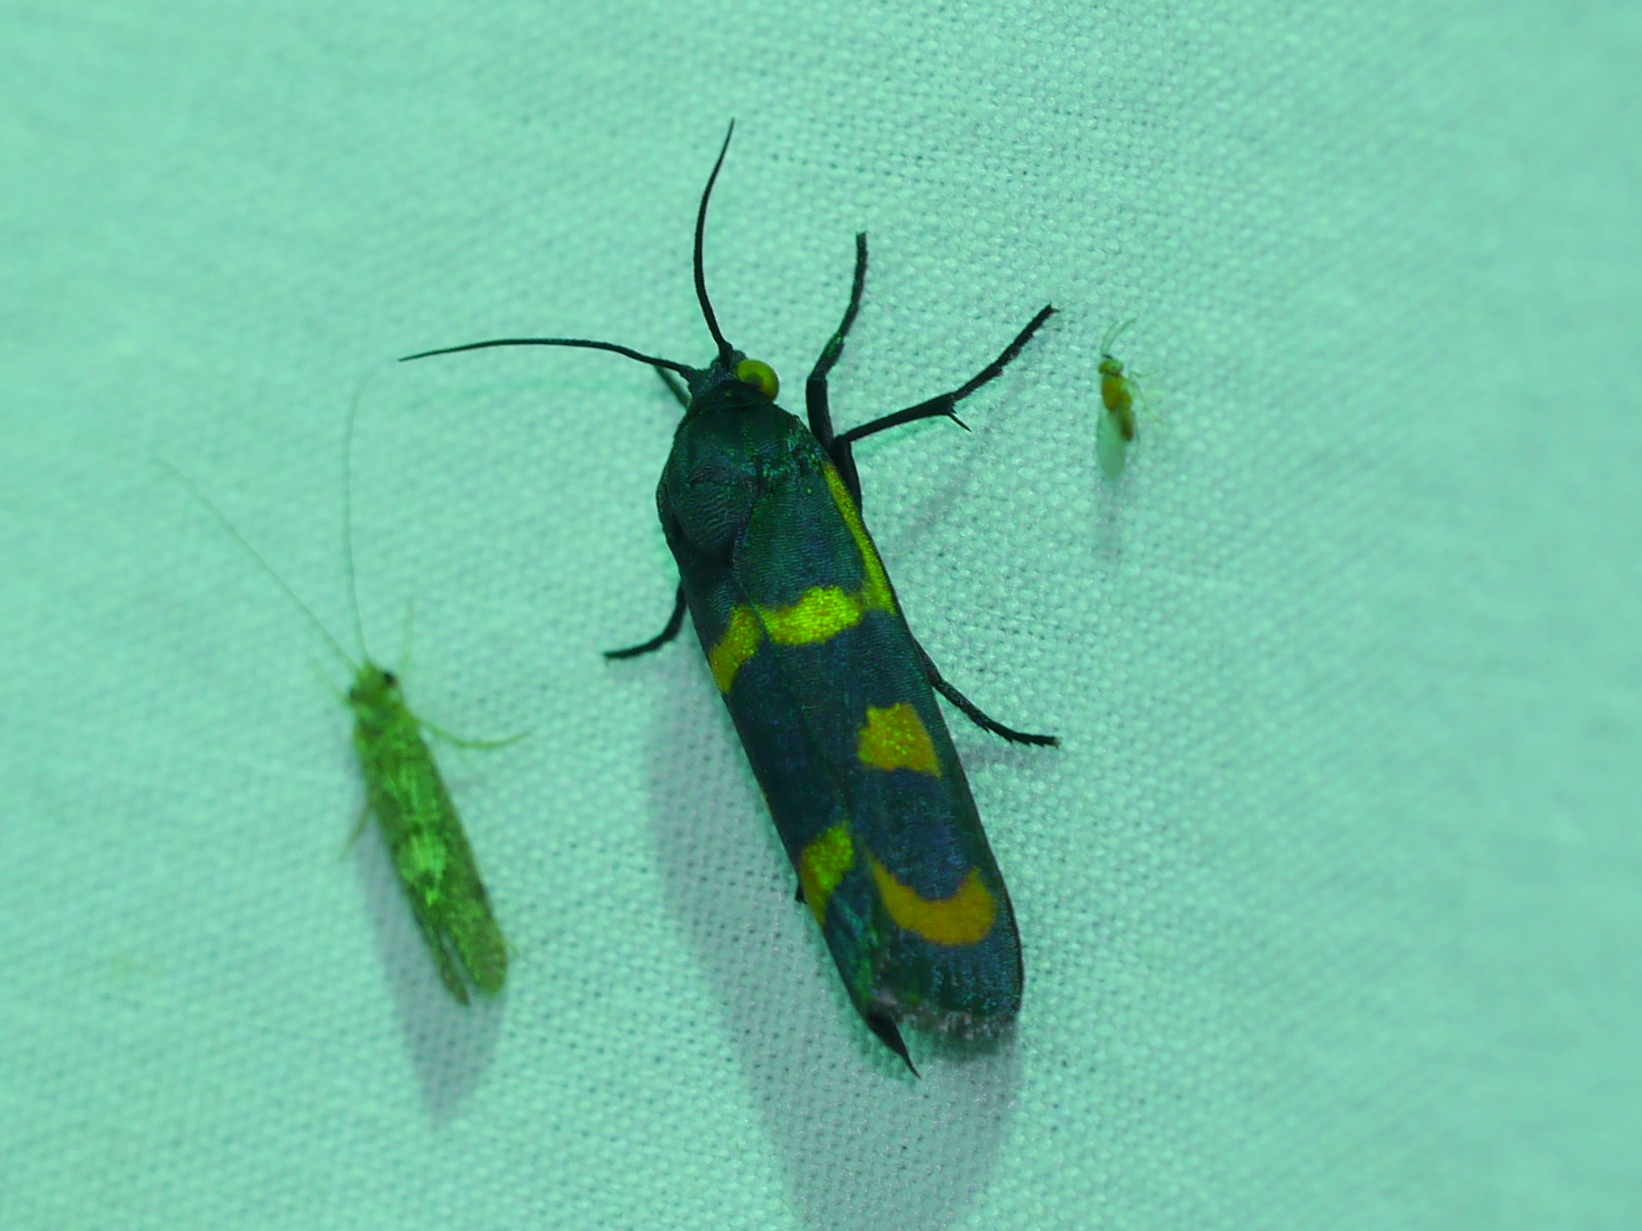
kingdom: Animalia
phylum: Arthropoda
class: Insecta
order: Lepidoptera
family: Noctuidae
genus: Cydosia
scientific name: Cydosia aurivitta
